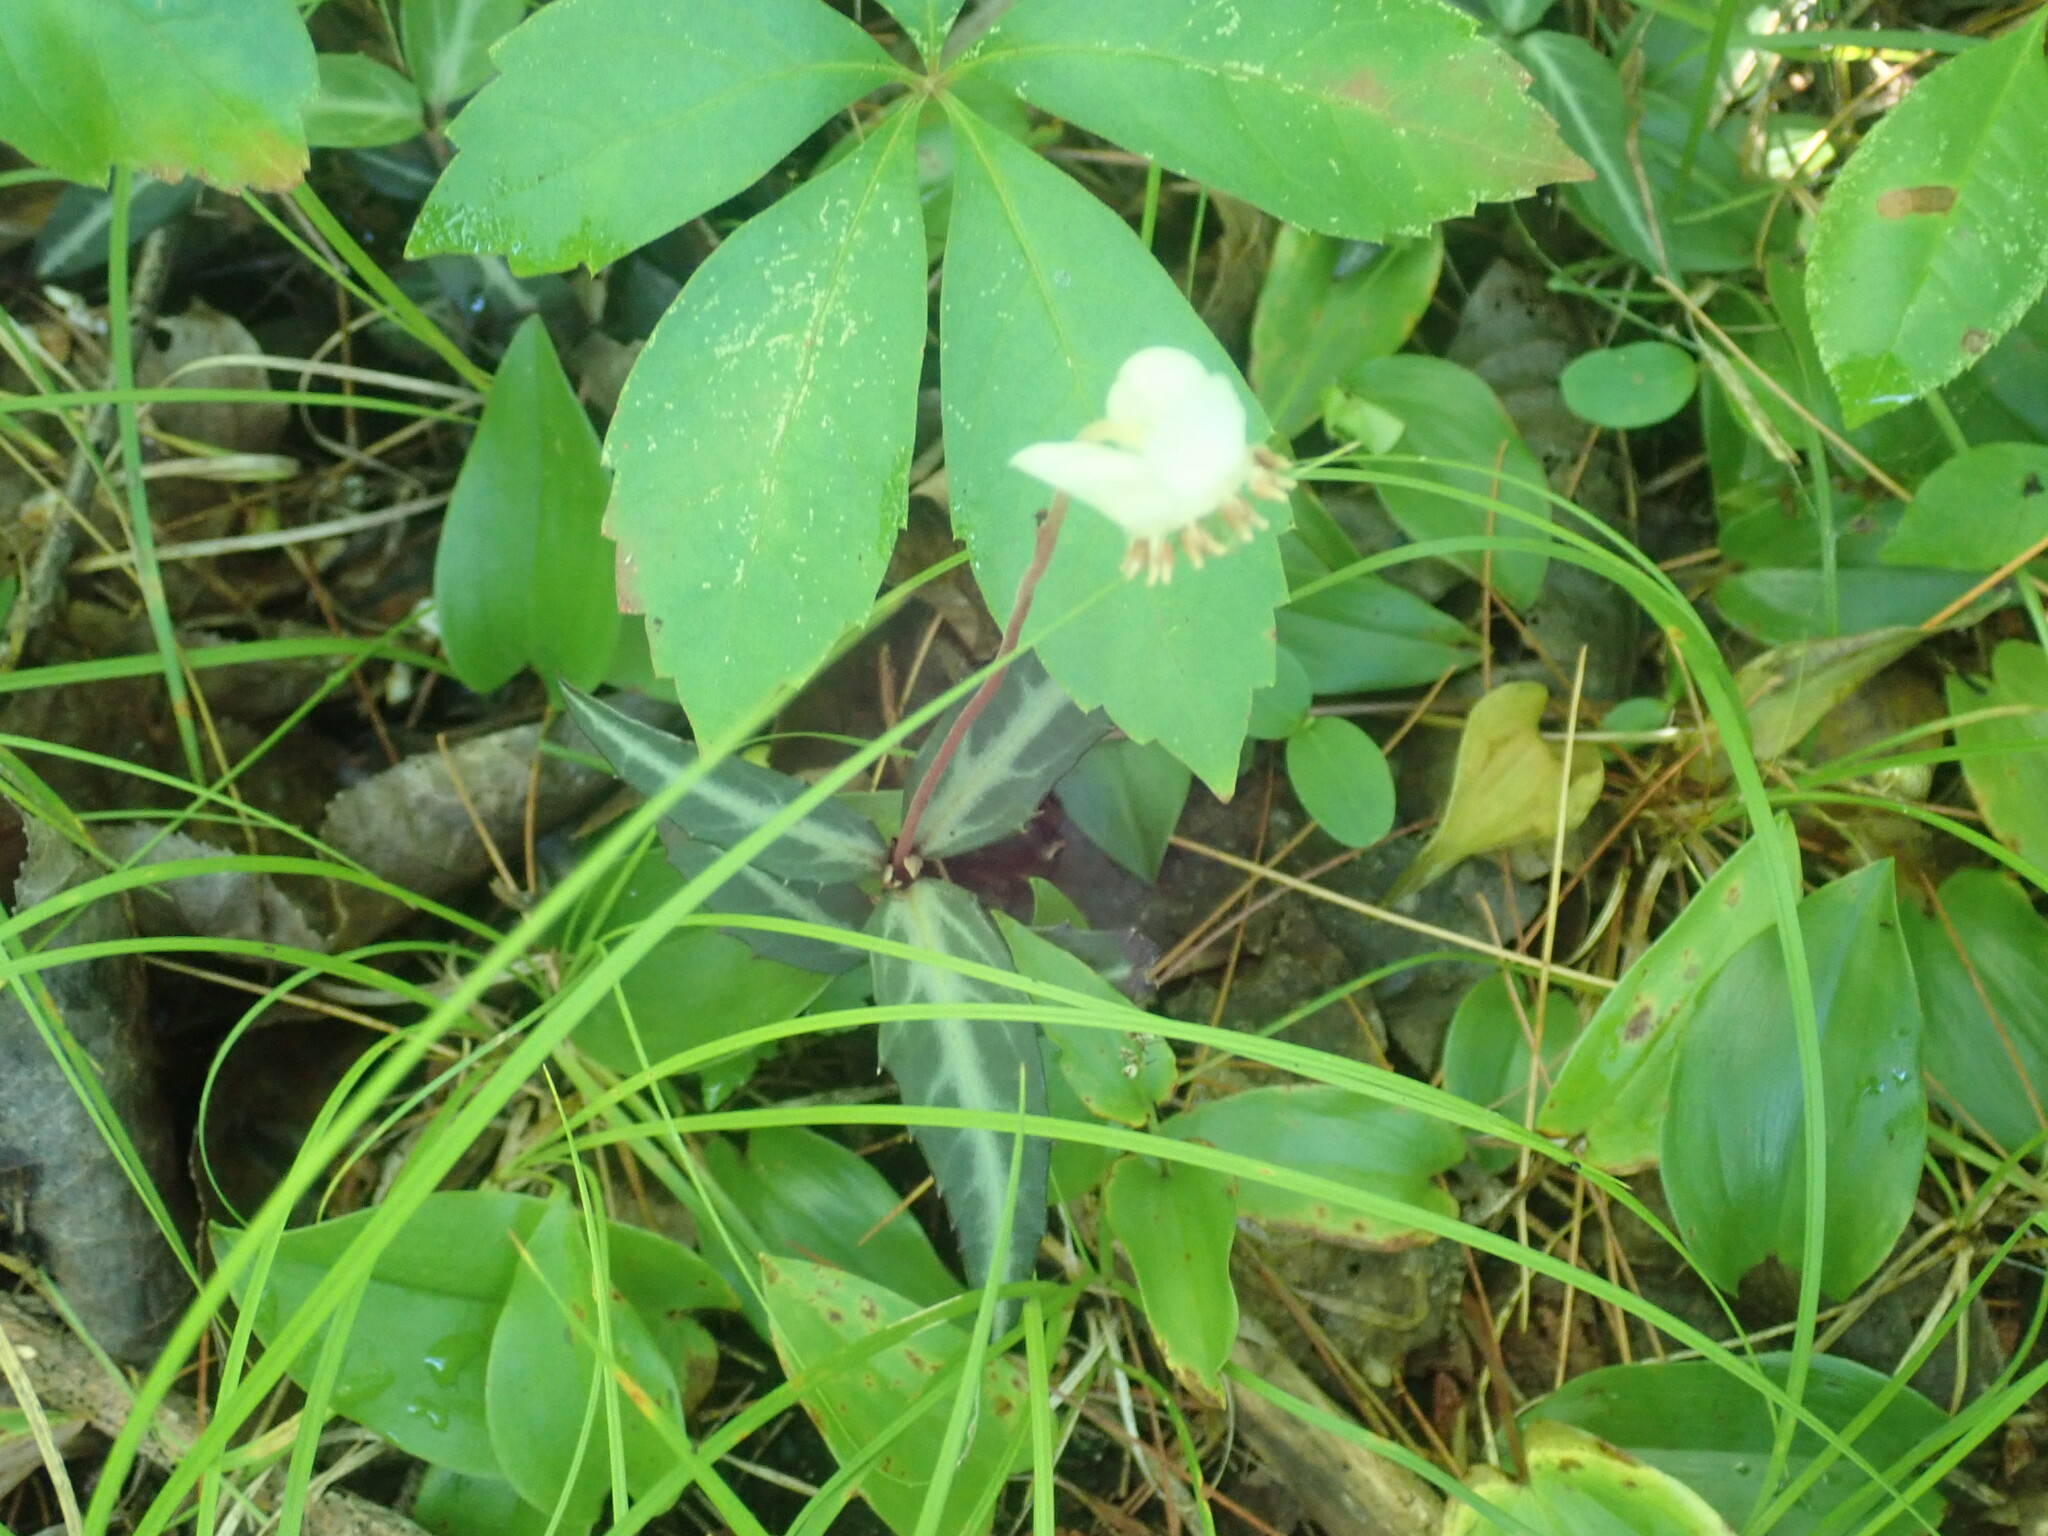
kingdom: Plantae
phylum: Tracheophyta
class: Magnoliopsida
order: Ericales
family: Ericaceae
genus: Chimaphila
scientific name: Chimaphila maculata
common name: Spotted pipsissewa
